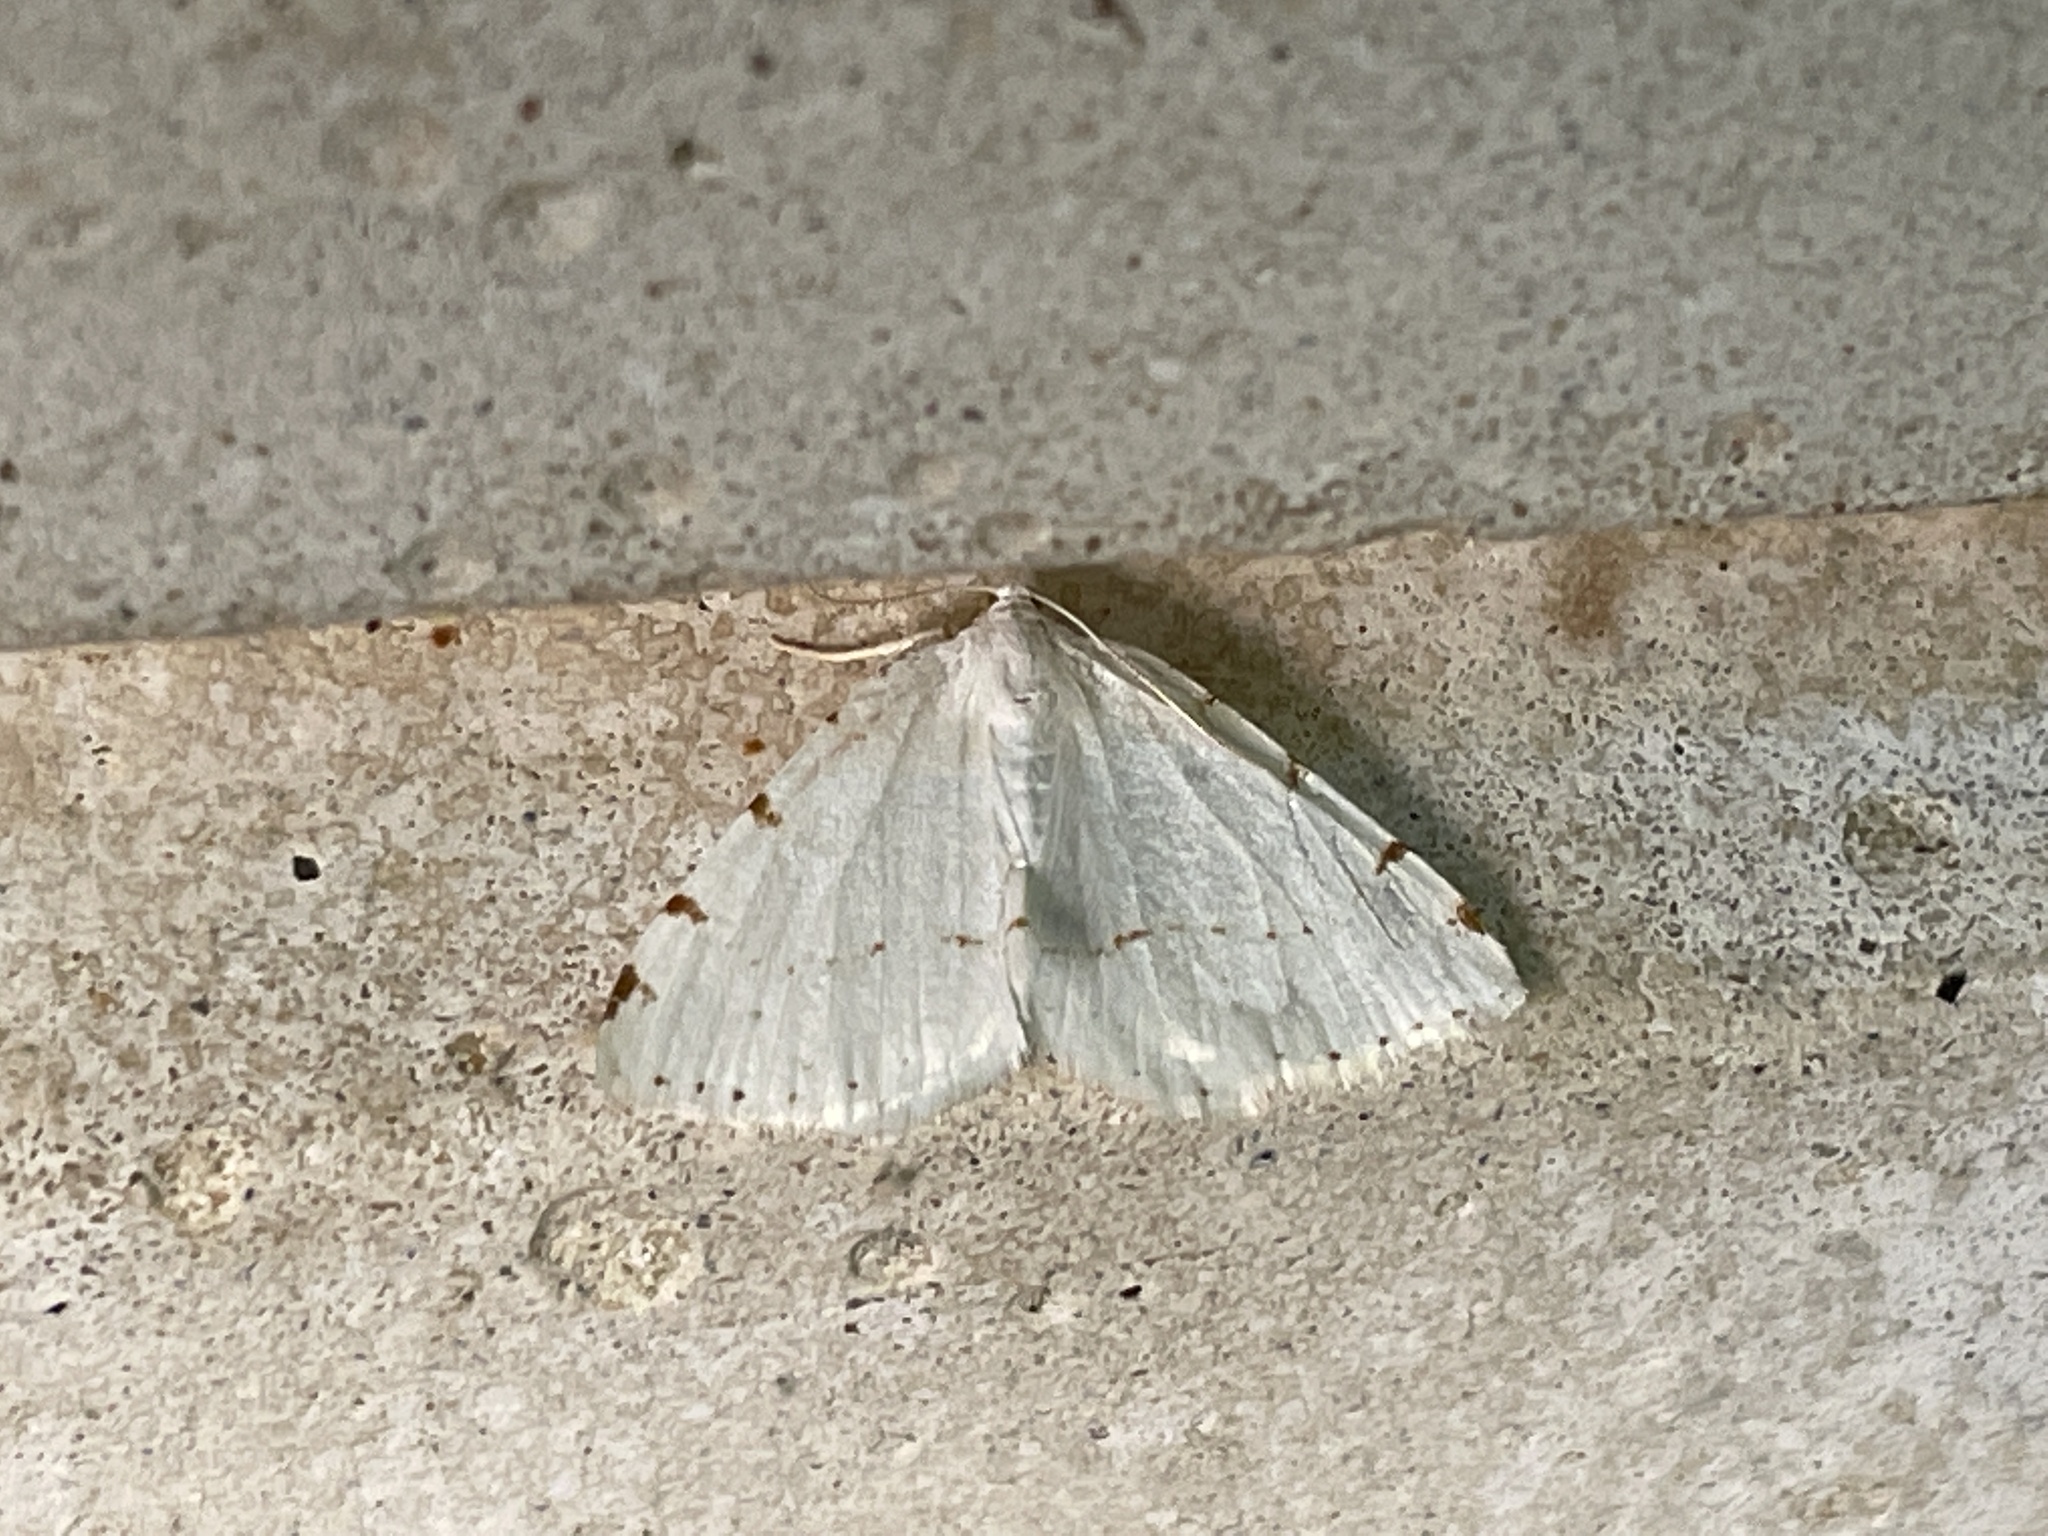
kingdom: Animalia
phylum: Arthropoda
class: Insecta
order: Lepidoptera
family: Geometridae
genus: Macaria
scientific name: Macaria pustularia
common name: Lesser maple spanworm moth
